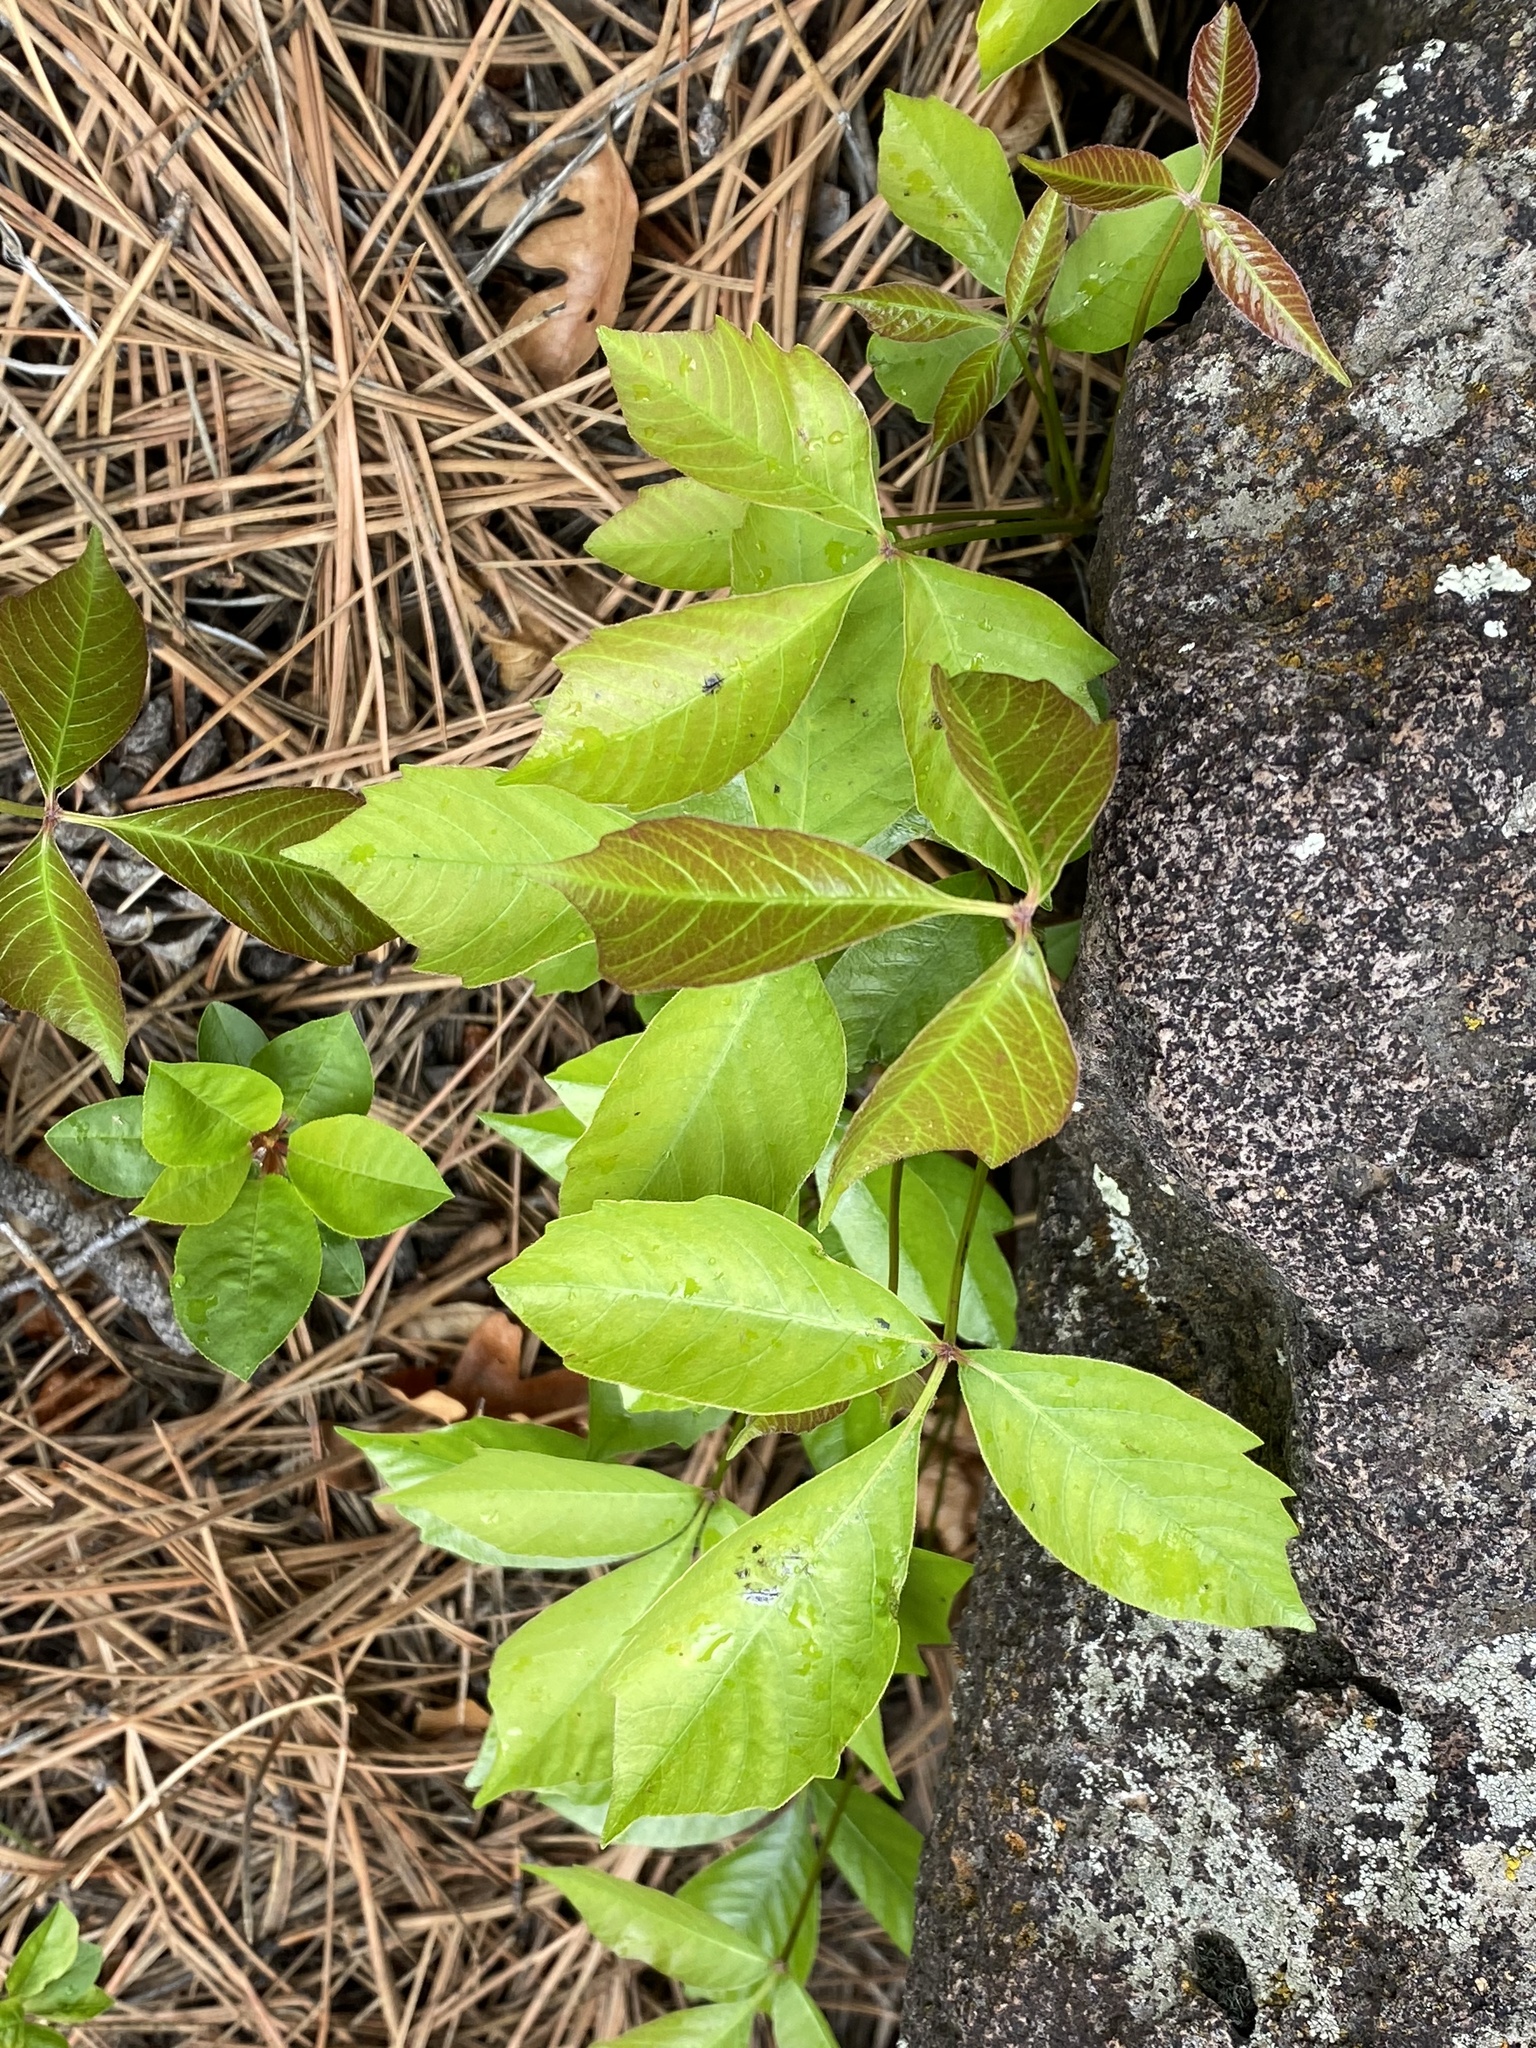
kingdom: Plantae
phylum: Tracheophyta
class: Magnoliopsida
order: Sapindales
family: Anacardiaceae
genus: Toxicodendron
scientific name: Toxicodendron rydbergii
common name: Rydberg's poison-ivy
